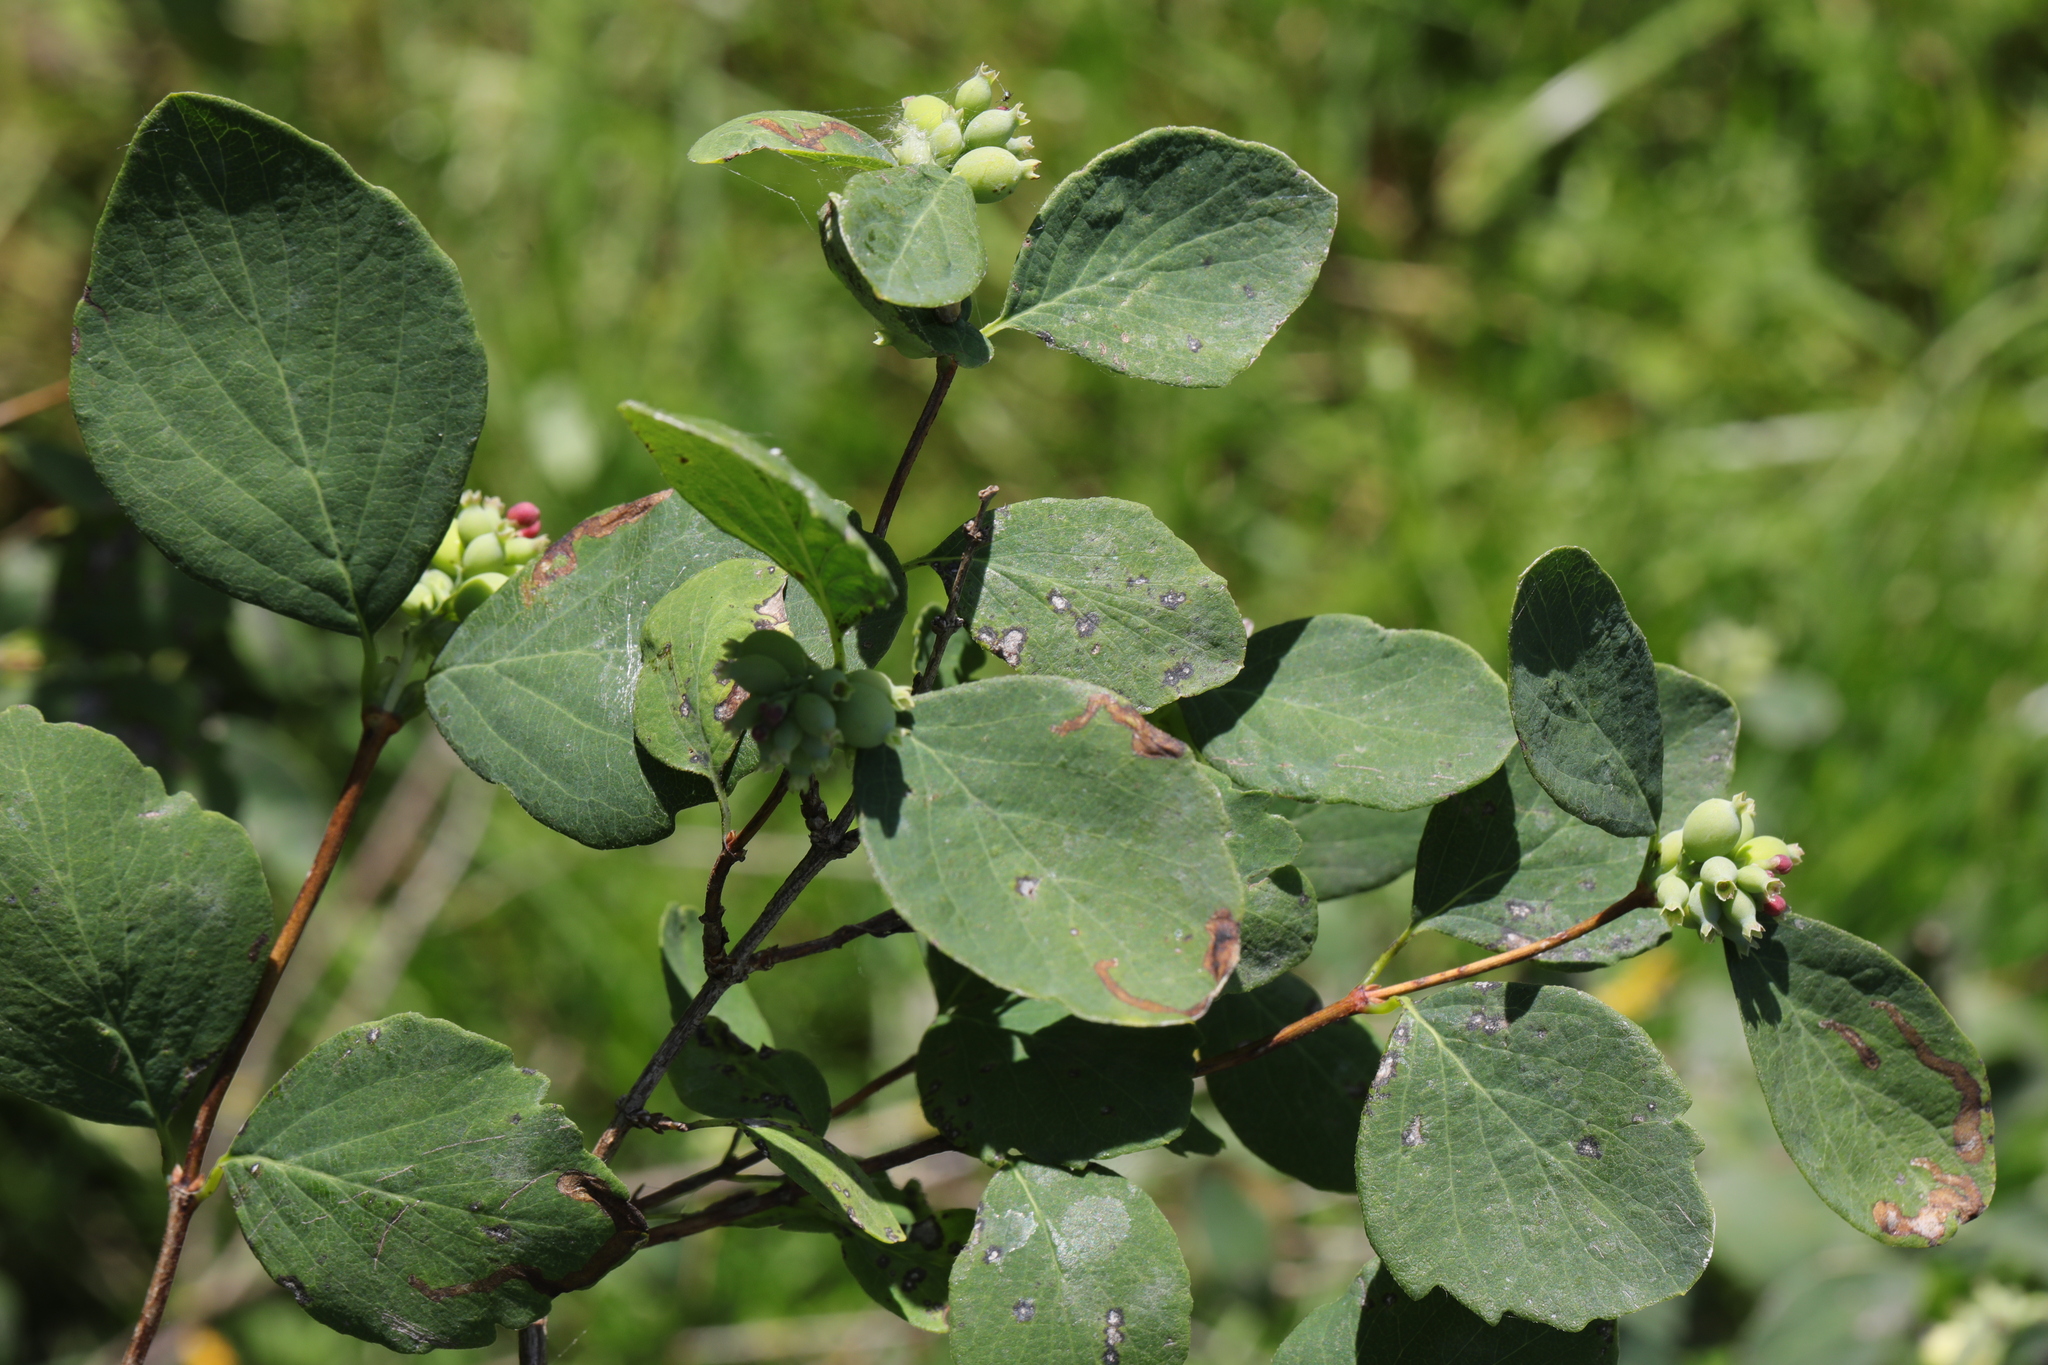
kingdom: Plantae
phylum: Tracheophyta
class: Magnoliopsida
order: Dipsacales
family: Caprifoliaceae
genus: Symphoricarpos
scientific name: Symphoricarpos albus
